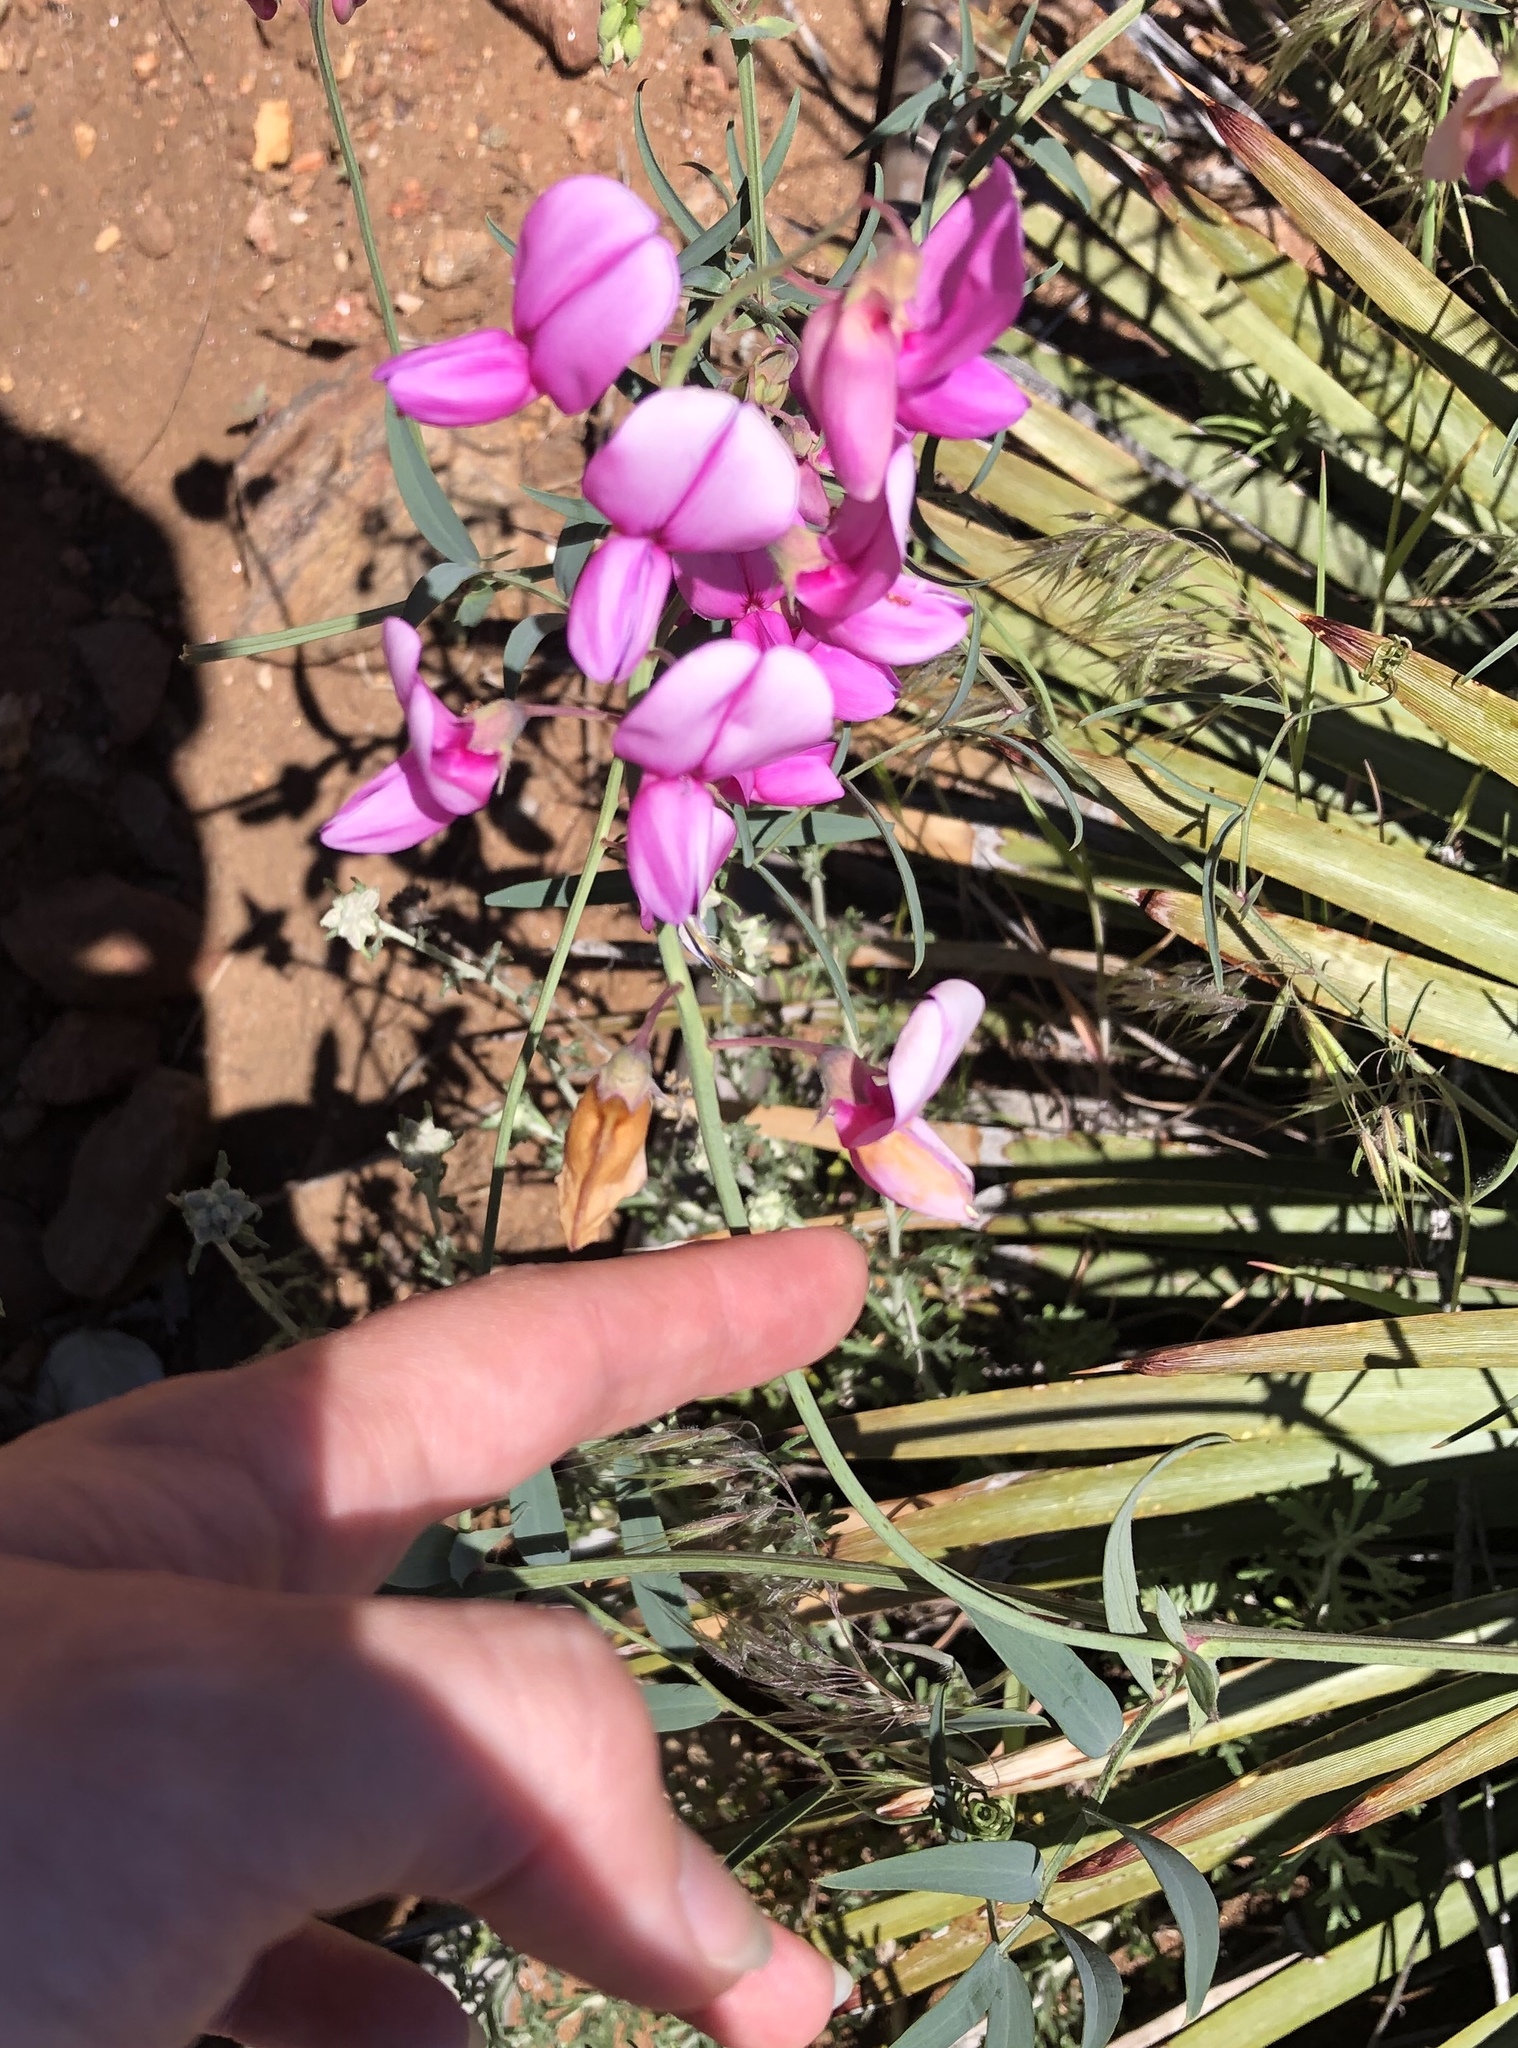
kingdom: Plantae
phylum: Tracheophyta
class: Magnoliopsida
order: Fabales
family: Fabaceae
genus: Lathyrus
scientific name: Lathyrus vestitus
